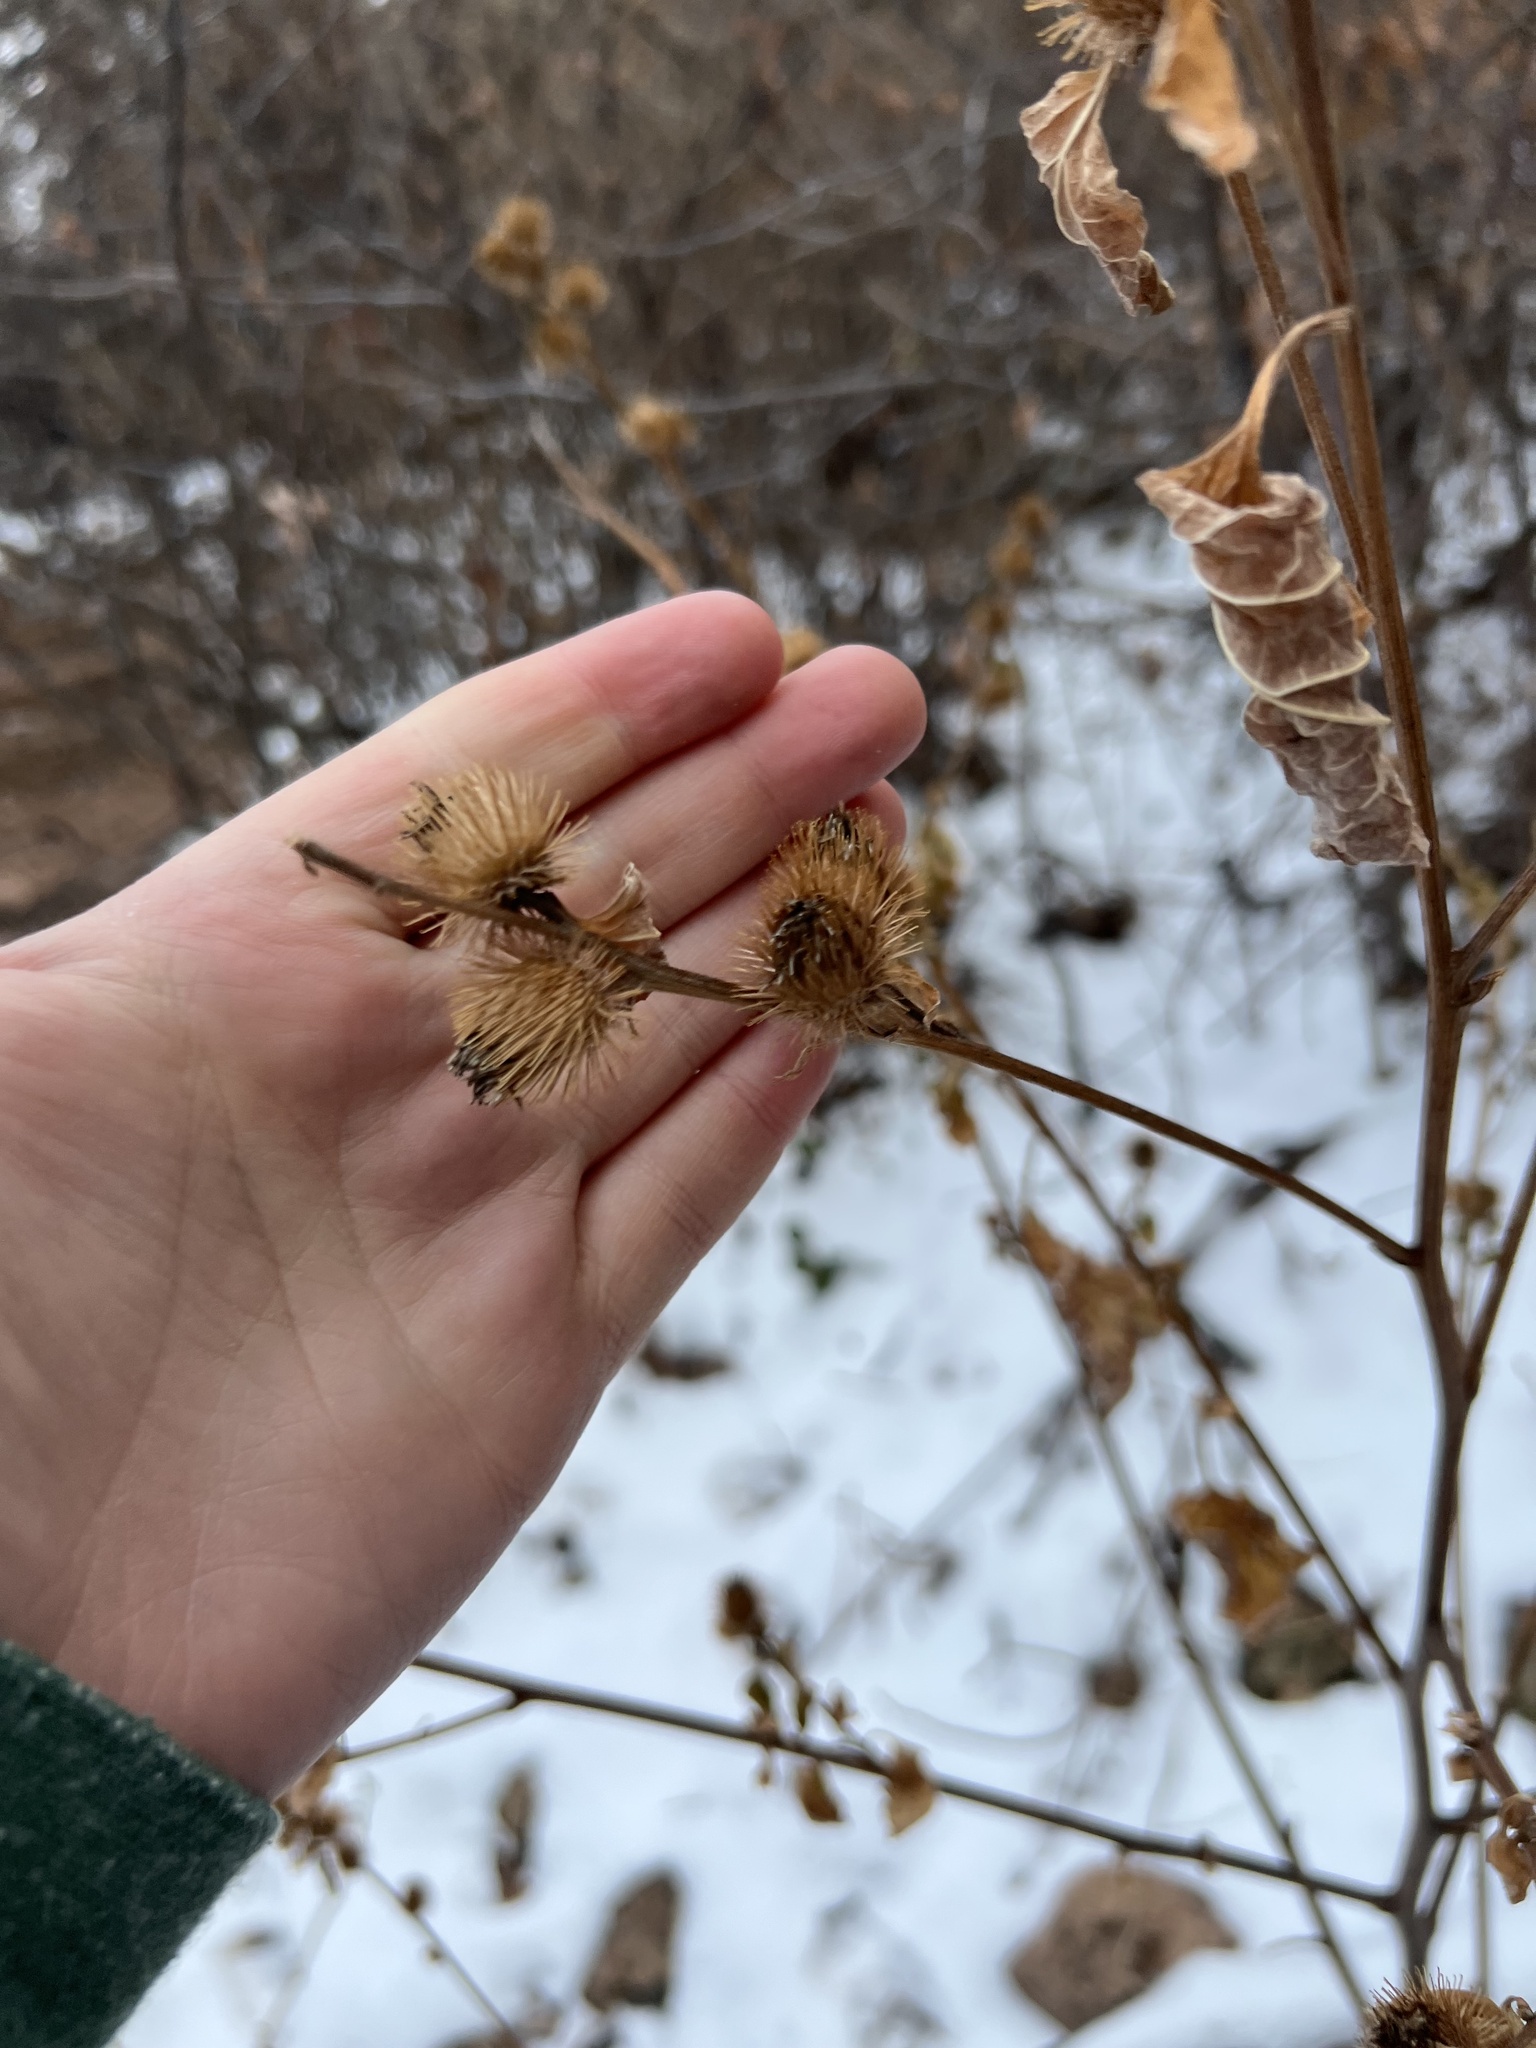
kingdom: Plantae
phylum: Tracheophyta
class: Magnoliopsida
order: Asterales
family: Asteraceae
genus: Arctium
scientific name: Arctium minus
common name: Lesser burdock
